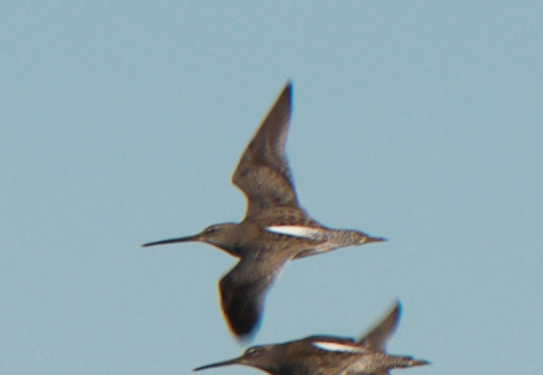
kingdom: Animalia
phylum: Chordata
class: Aves
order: Charadriiformes
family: Scolopacidae
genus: Limnodromus
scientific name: Limnodromus scolopaceus
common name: Long-billed dowitcher
